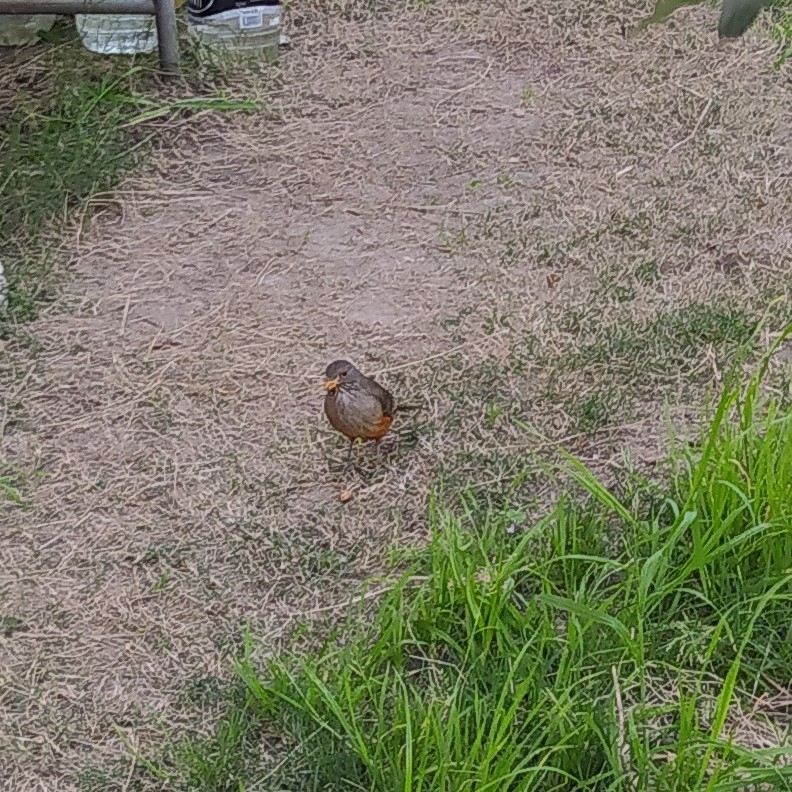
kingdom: Animalia
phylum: Chordata
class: Aves
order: Passeriformes
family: Turdidae
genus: Turdus
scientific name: Turdus rufiventris
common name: Rufous-bellied thrush
